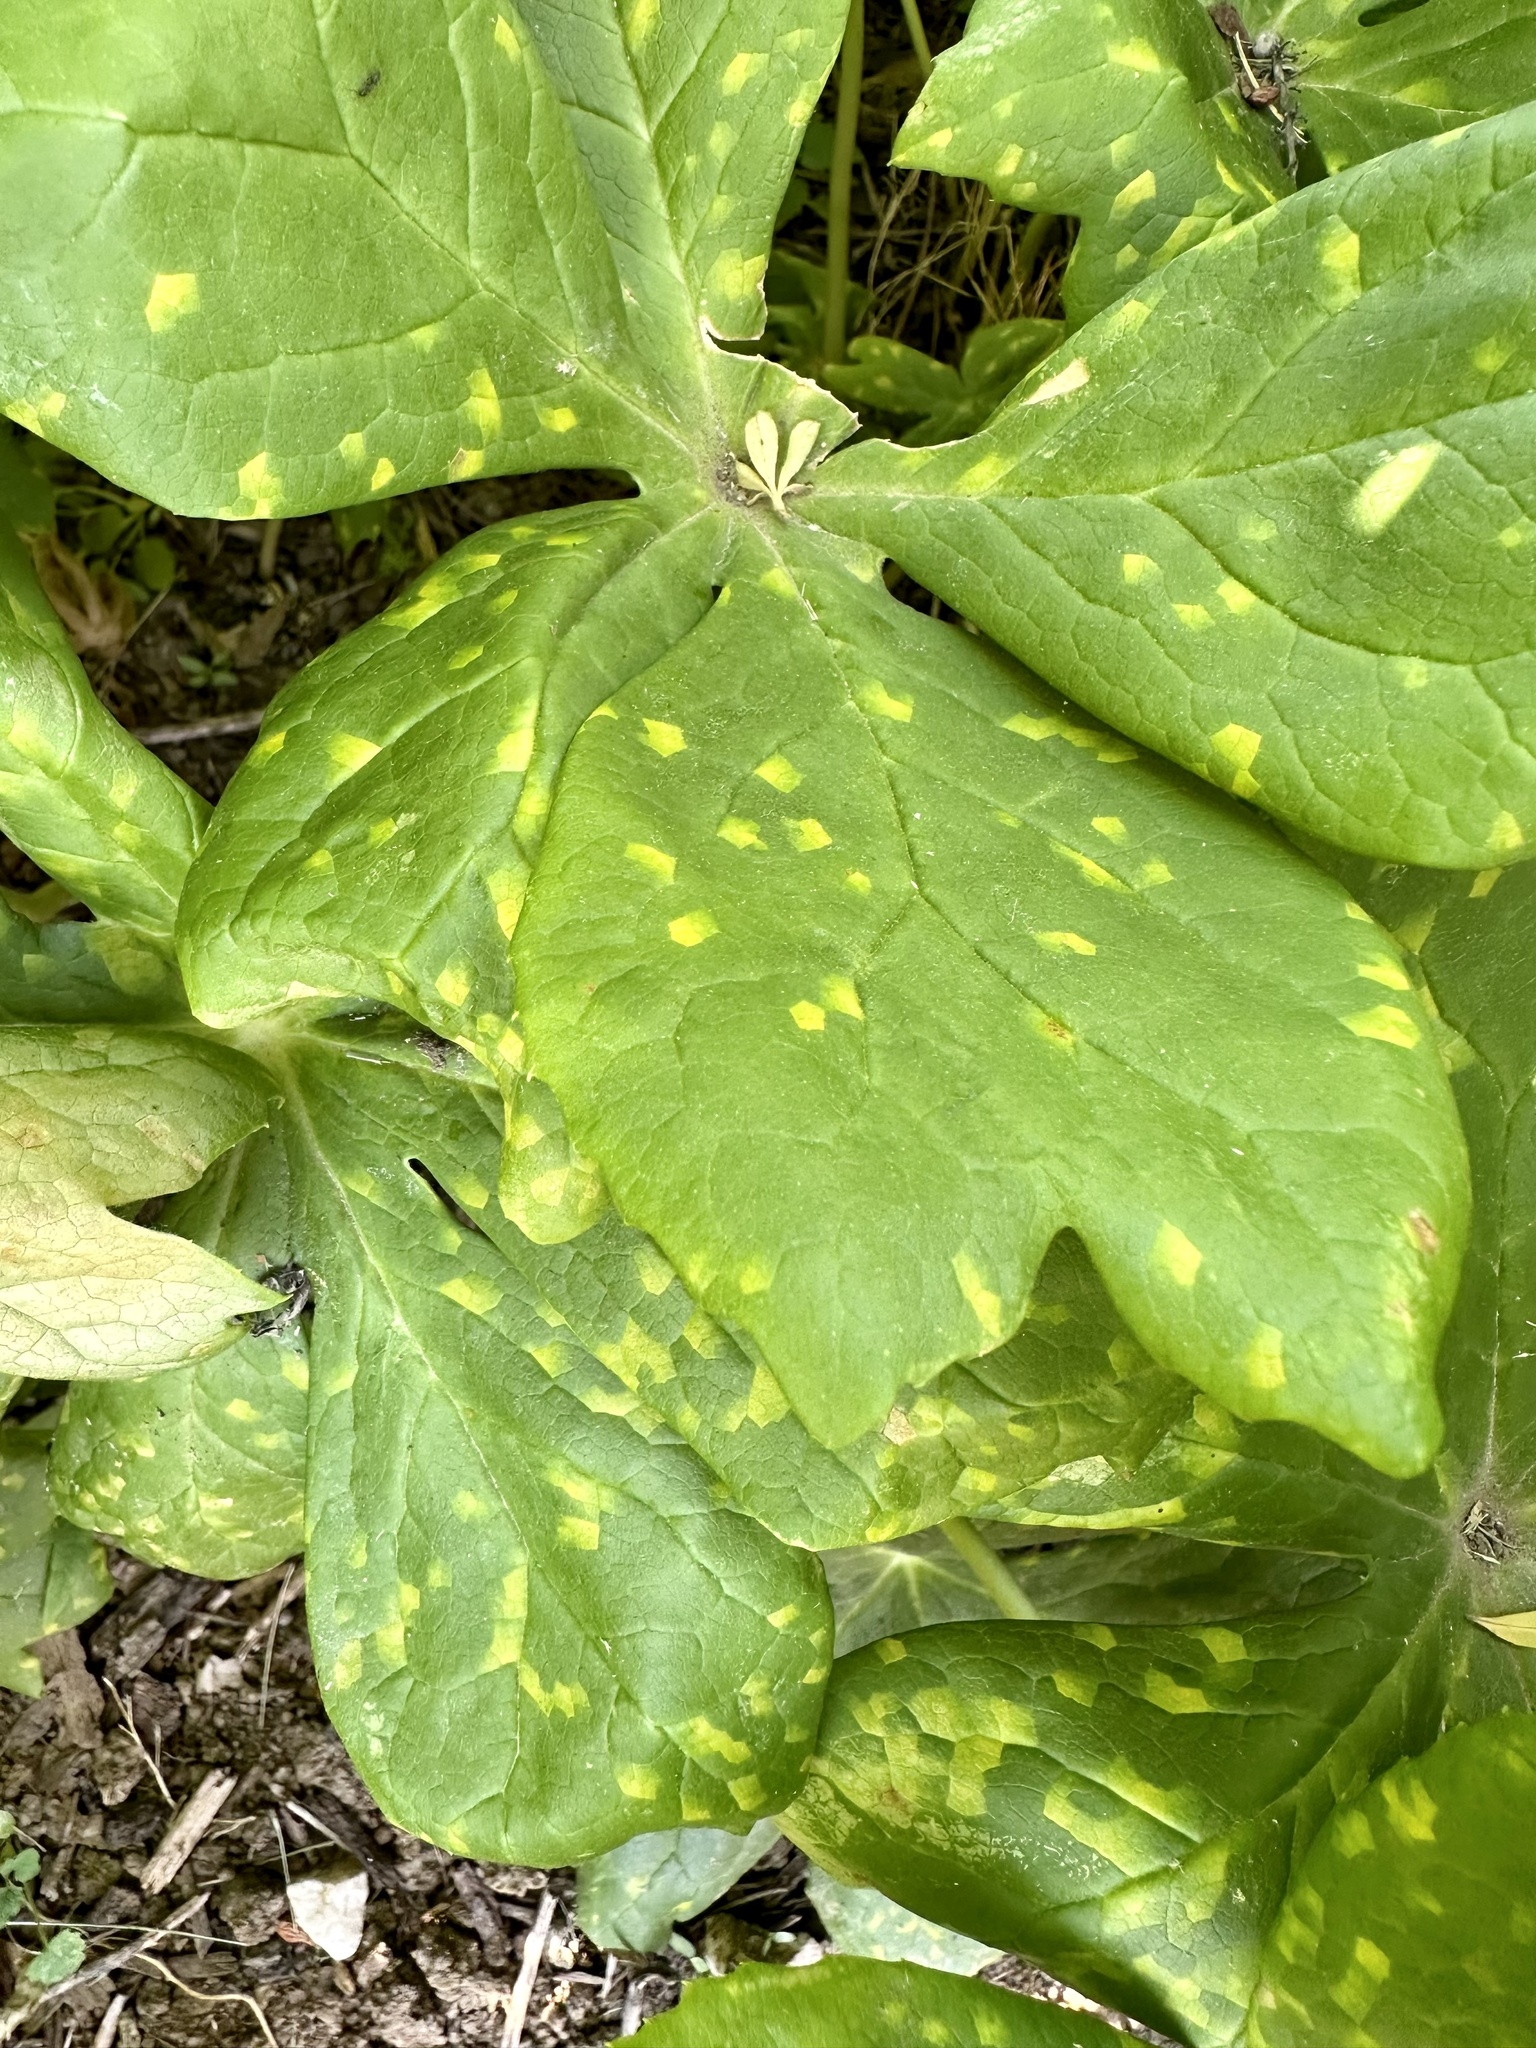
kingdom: Fungi
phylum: Basidiomycota
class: Pucciniomycetes
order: Pucciniales
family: Pucciniaceae
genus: Puccinia
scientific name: Puccinia podophylli
